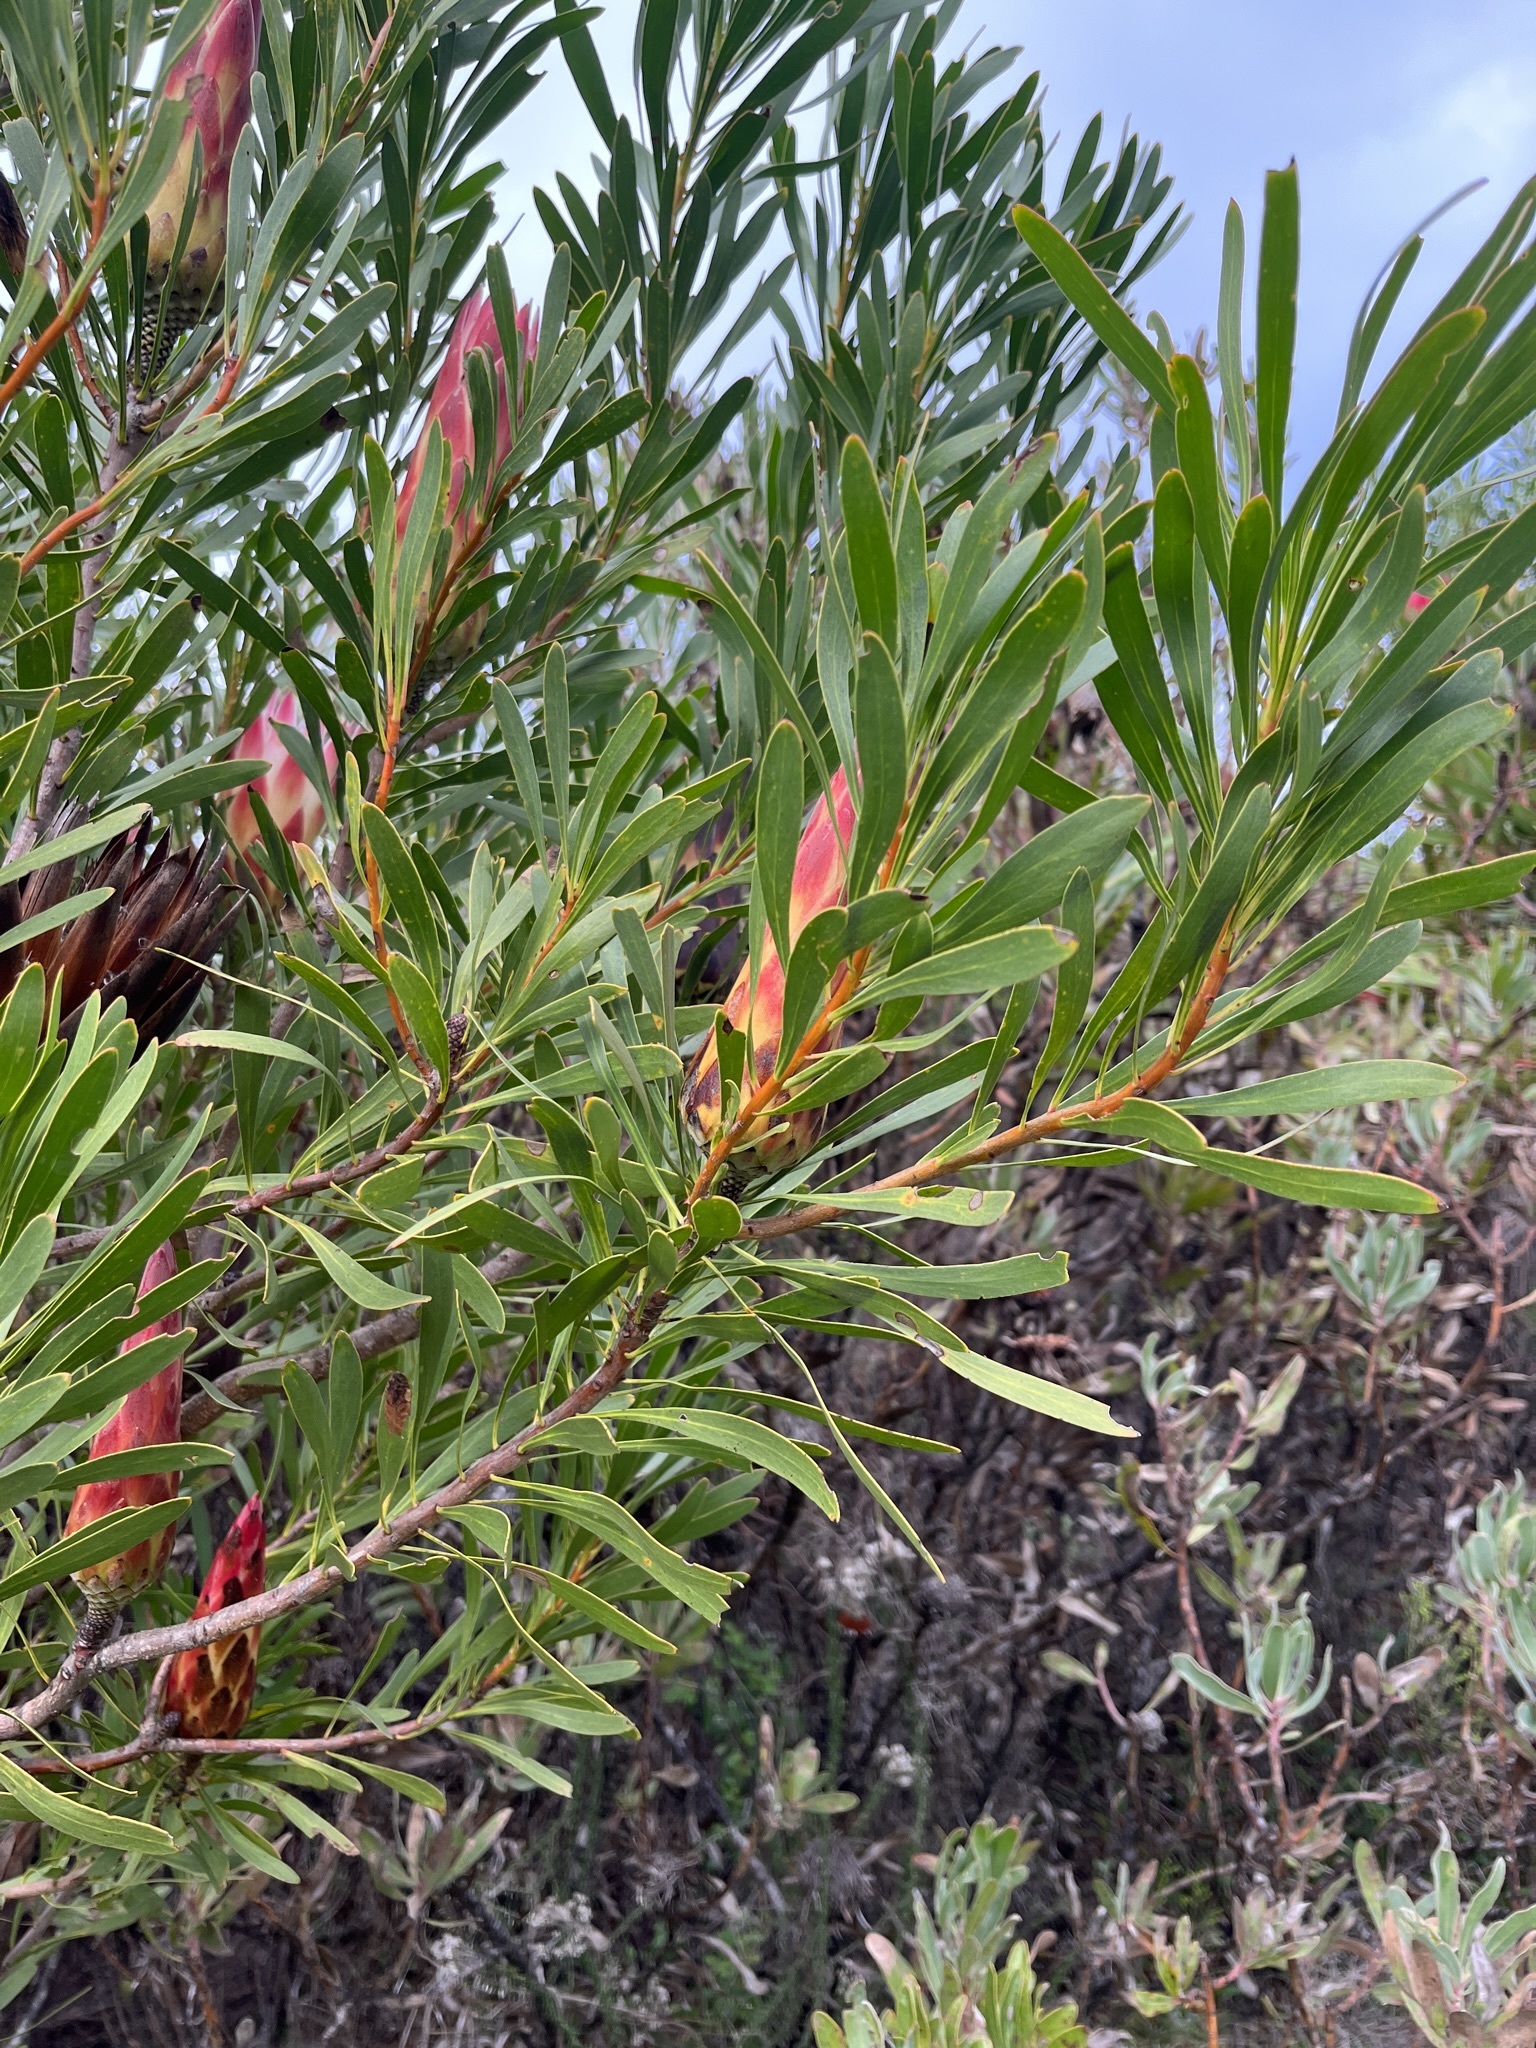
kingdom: Plantae
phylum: Tracheophyta
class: Magnoliopsida
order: Proteales
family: Proteaceae
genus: Protea
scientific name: Protea repens
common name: Sugarbush
